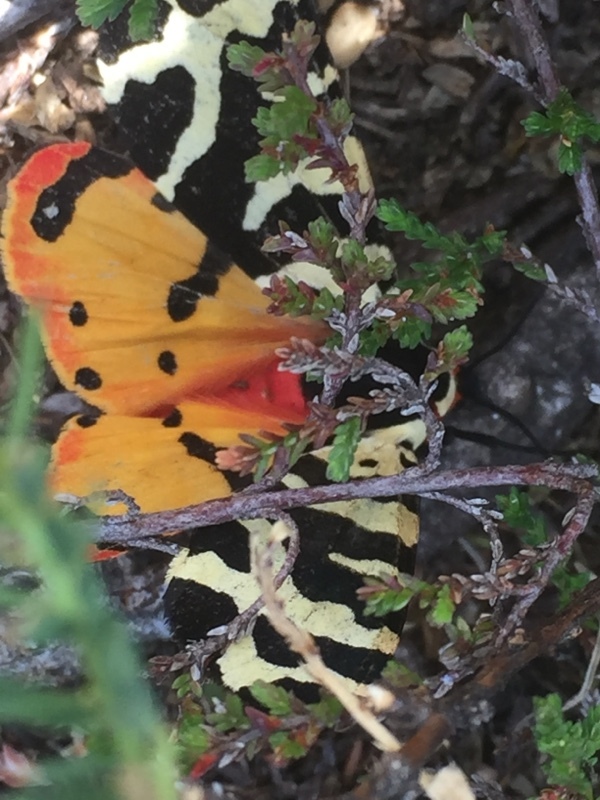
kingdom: Animalia
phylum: Arthropoda
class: Insecta
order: Lepidoptera
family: Erebidae
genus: Arctia
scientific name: Arctia tigrina
